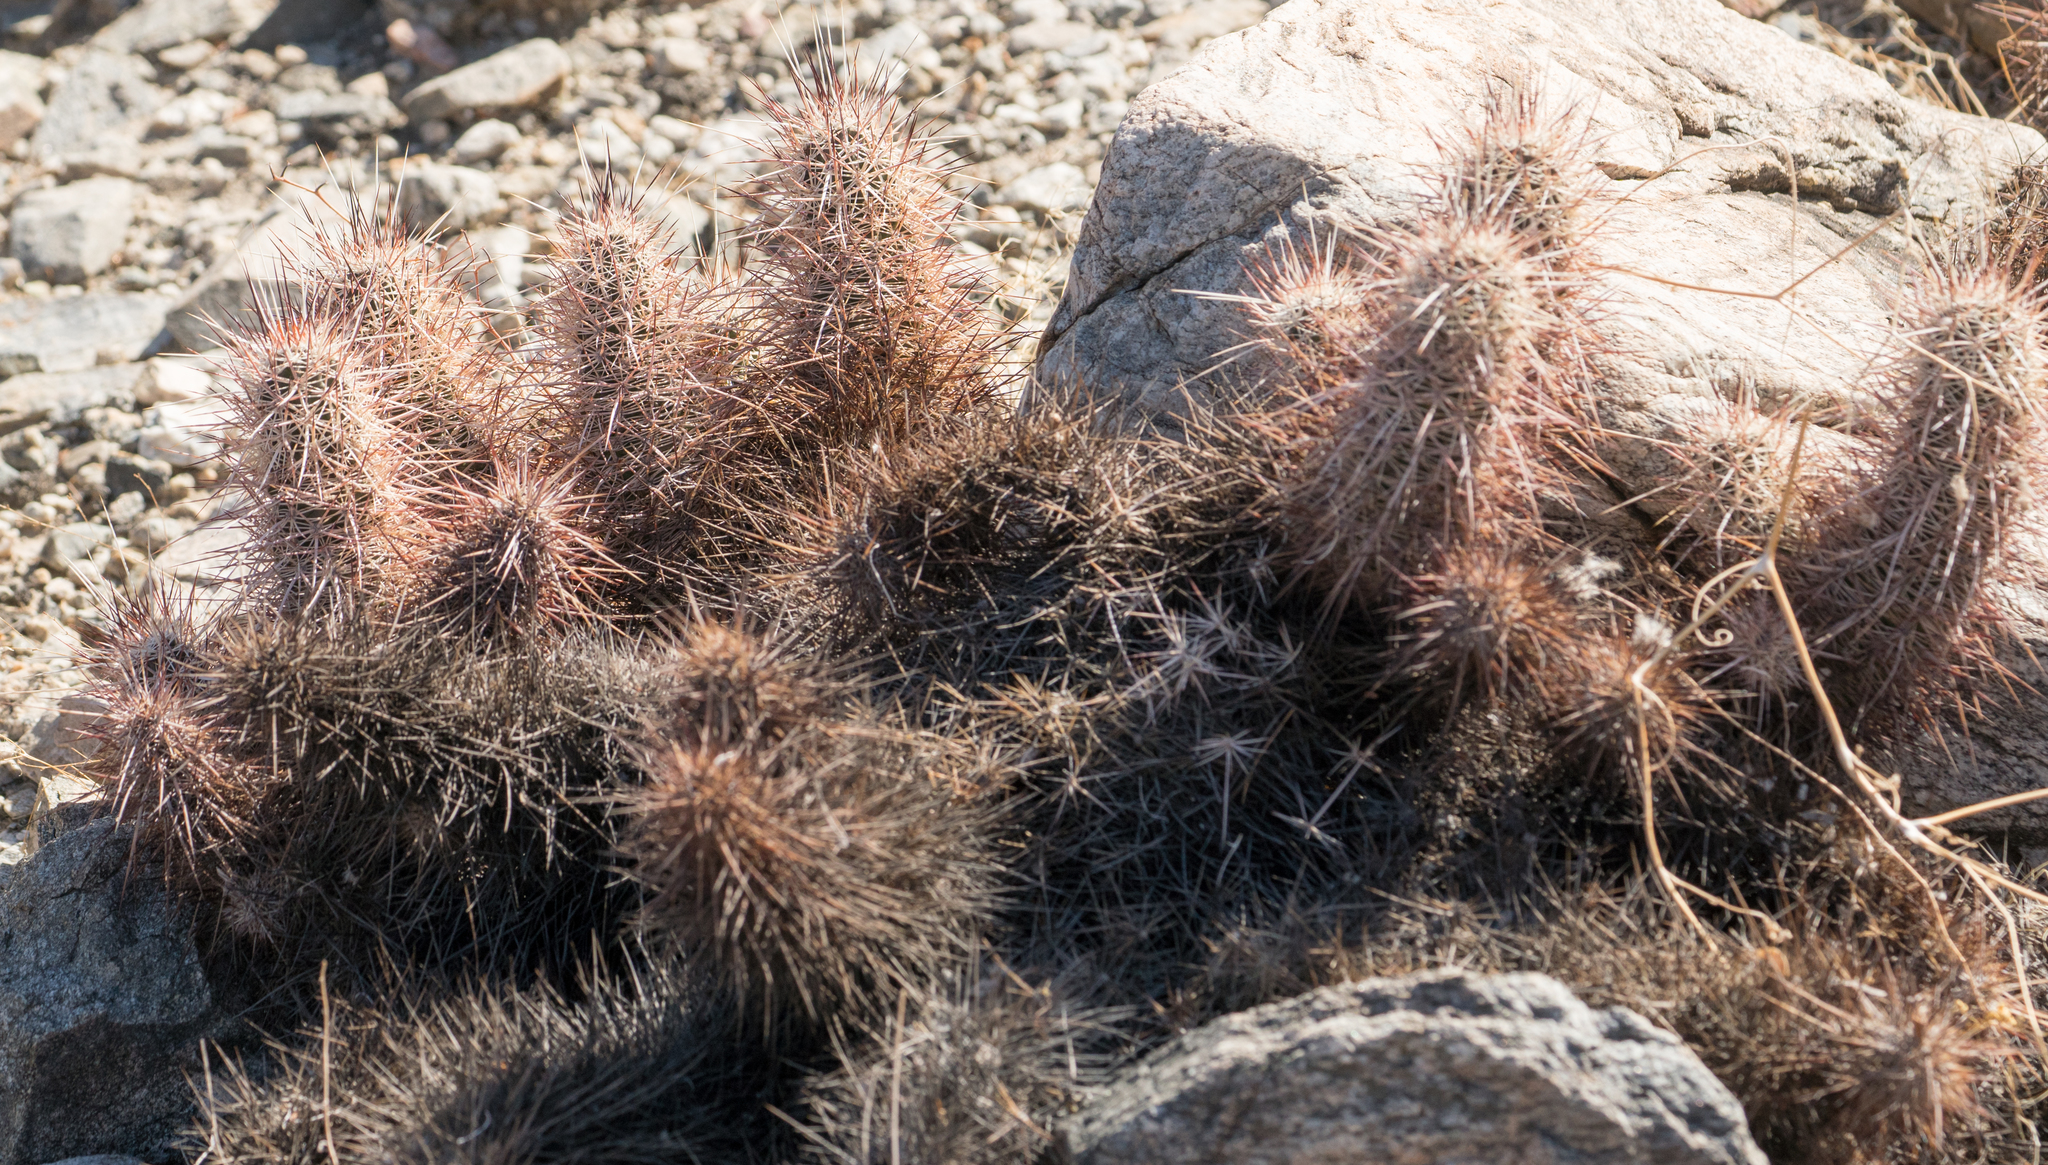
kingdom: Plantae
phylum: Tracheophyta
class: Magnoliopsida
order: Caryophyllales
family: Cactaceae
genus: Echinocereus
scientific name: Echinocereus engelmannii
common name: Engelmann's hedgehog cactus
